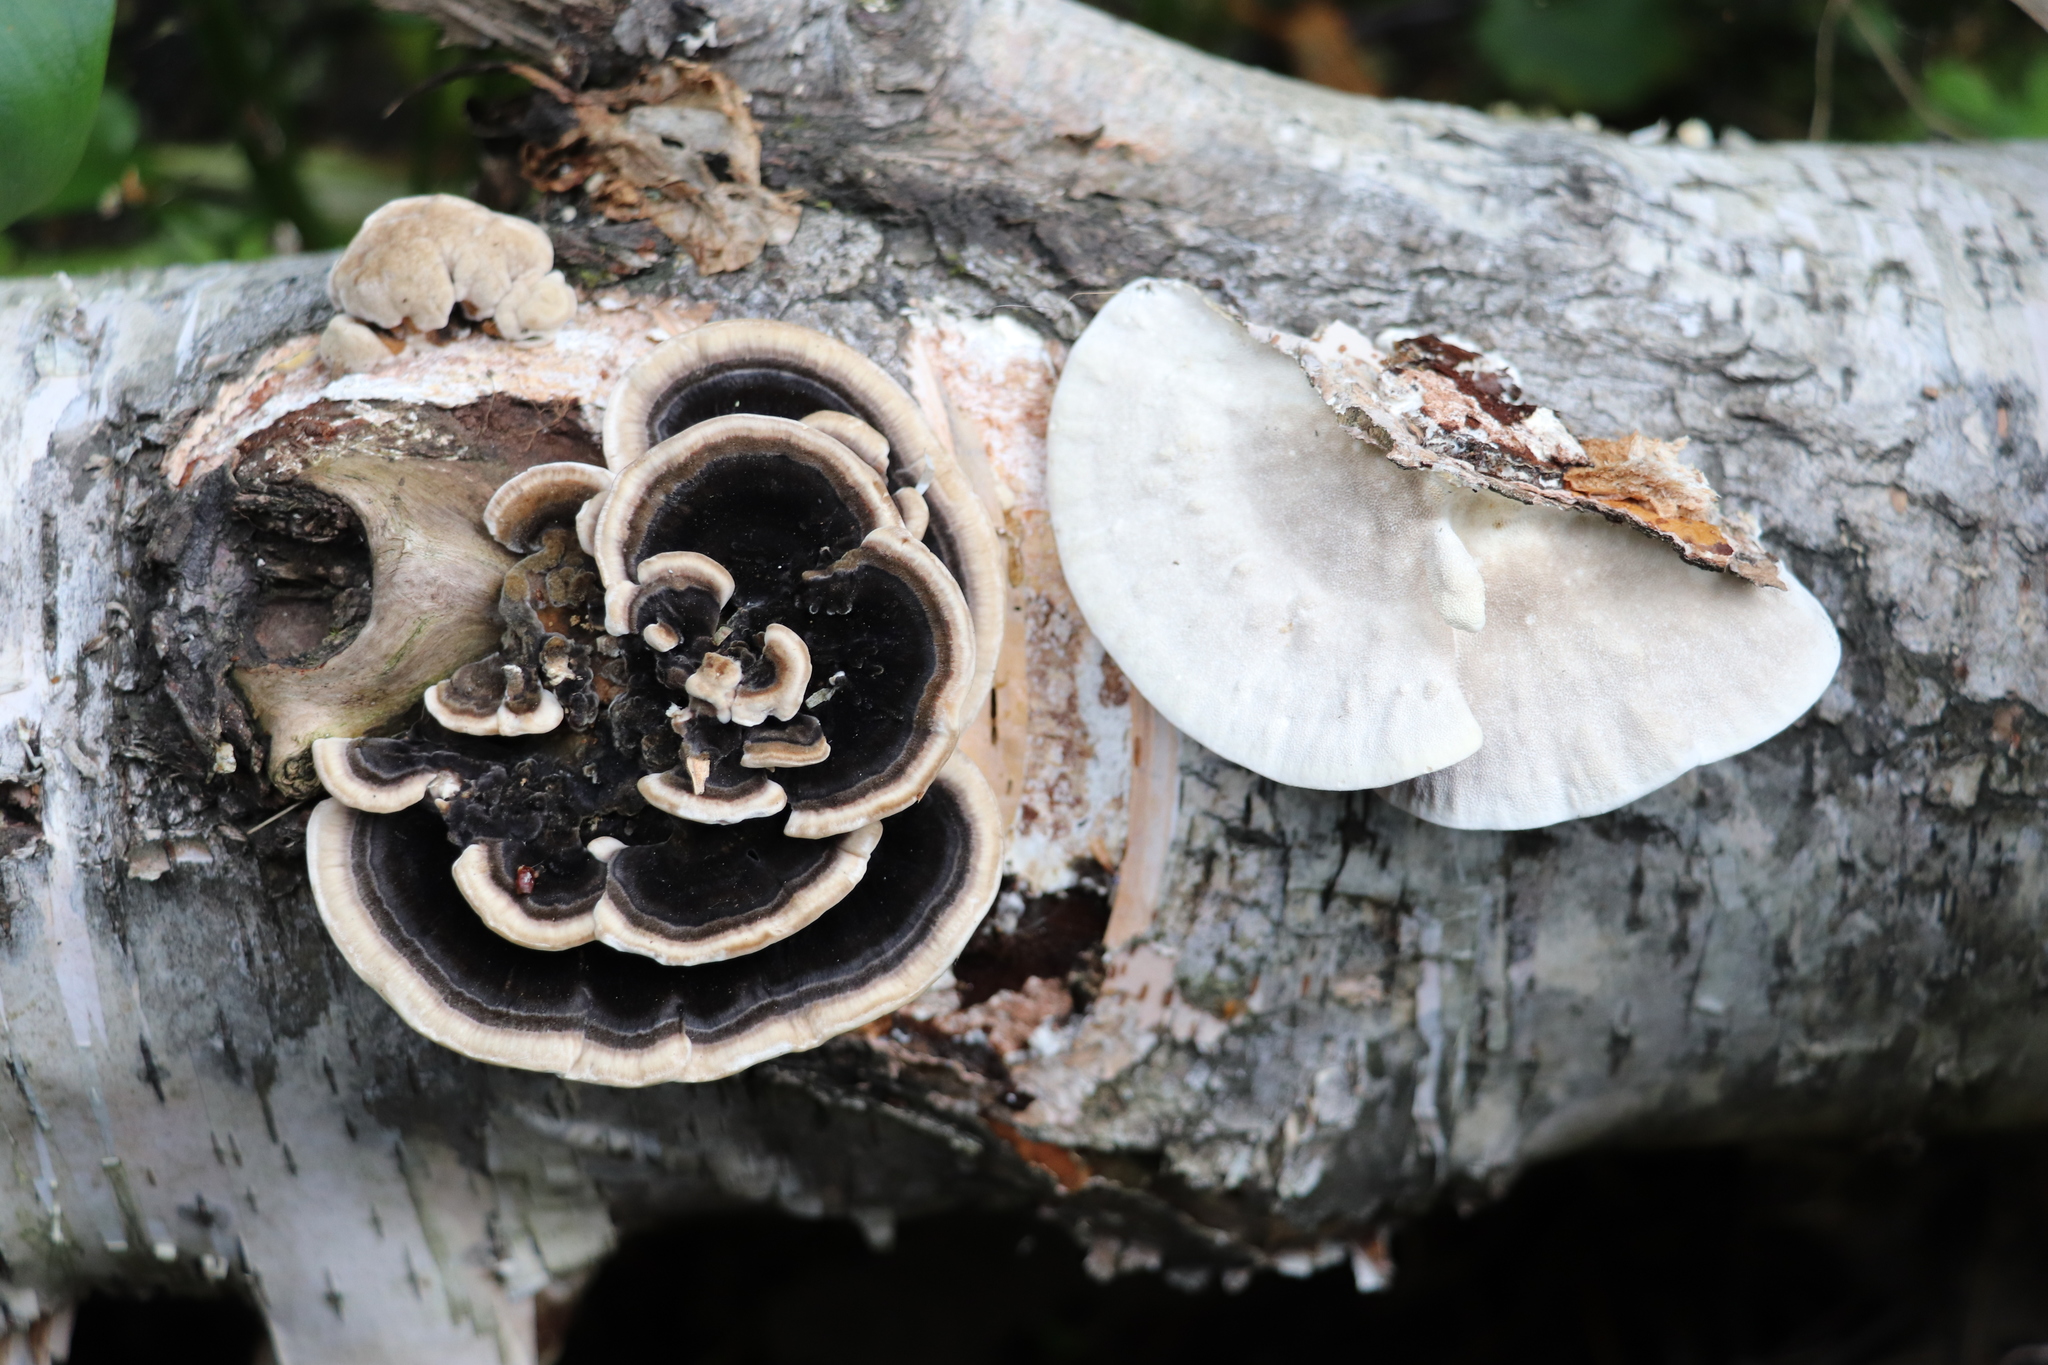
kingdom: Fungi
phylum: Basidiomycota
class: Agaricomycetes
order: Polyporales
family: Polyporaceae
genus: Trametes
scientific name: Trametes versicolor
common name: Turkeytail
